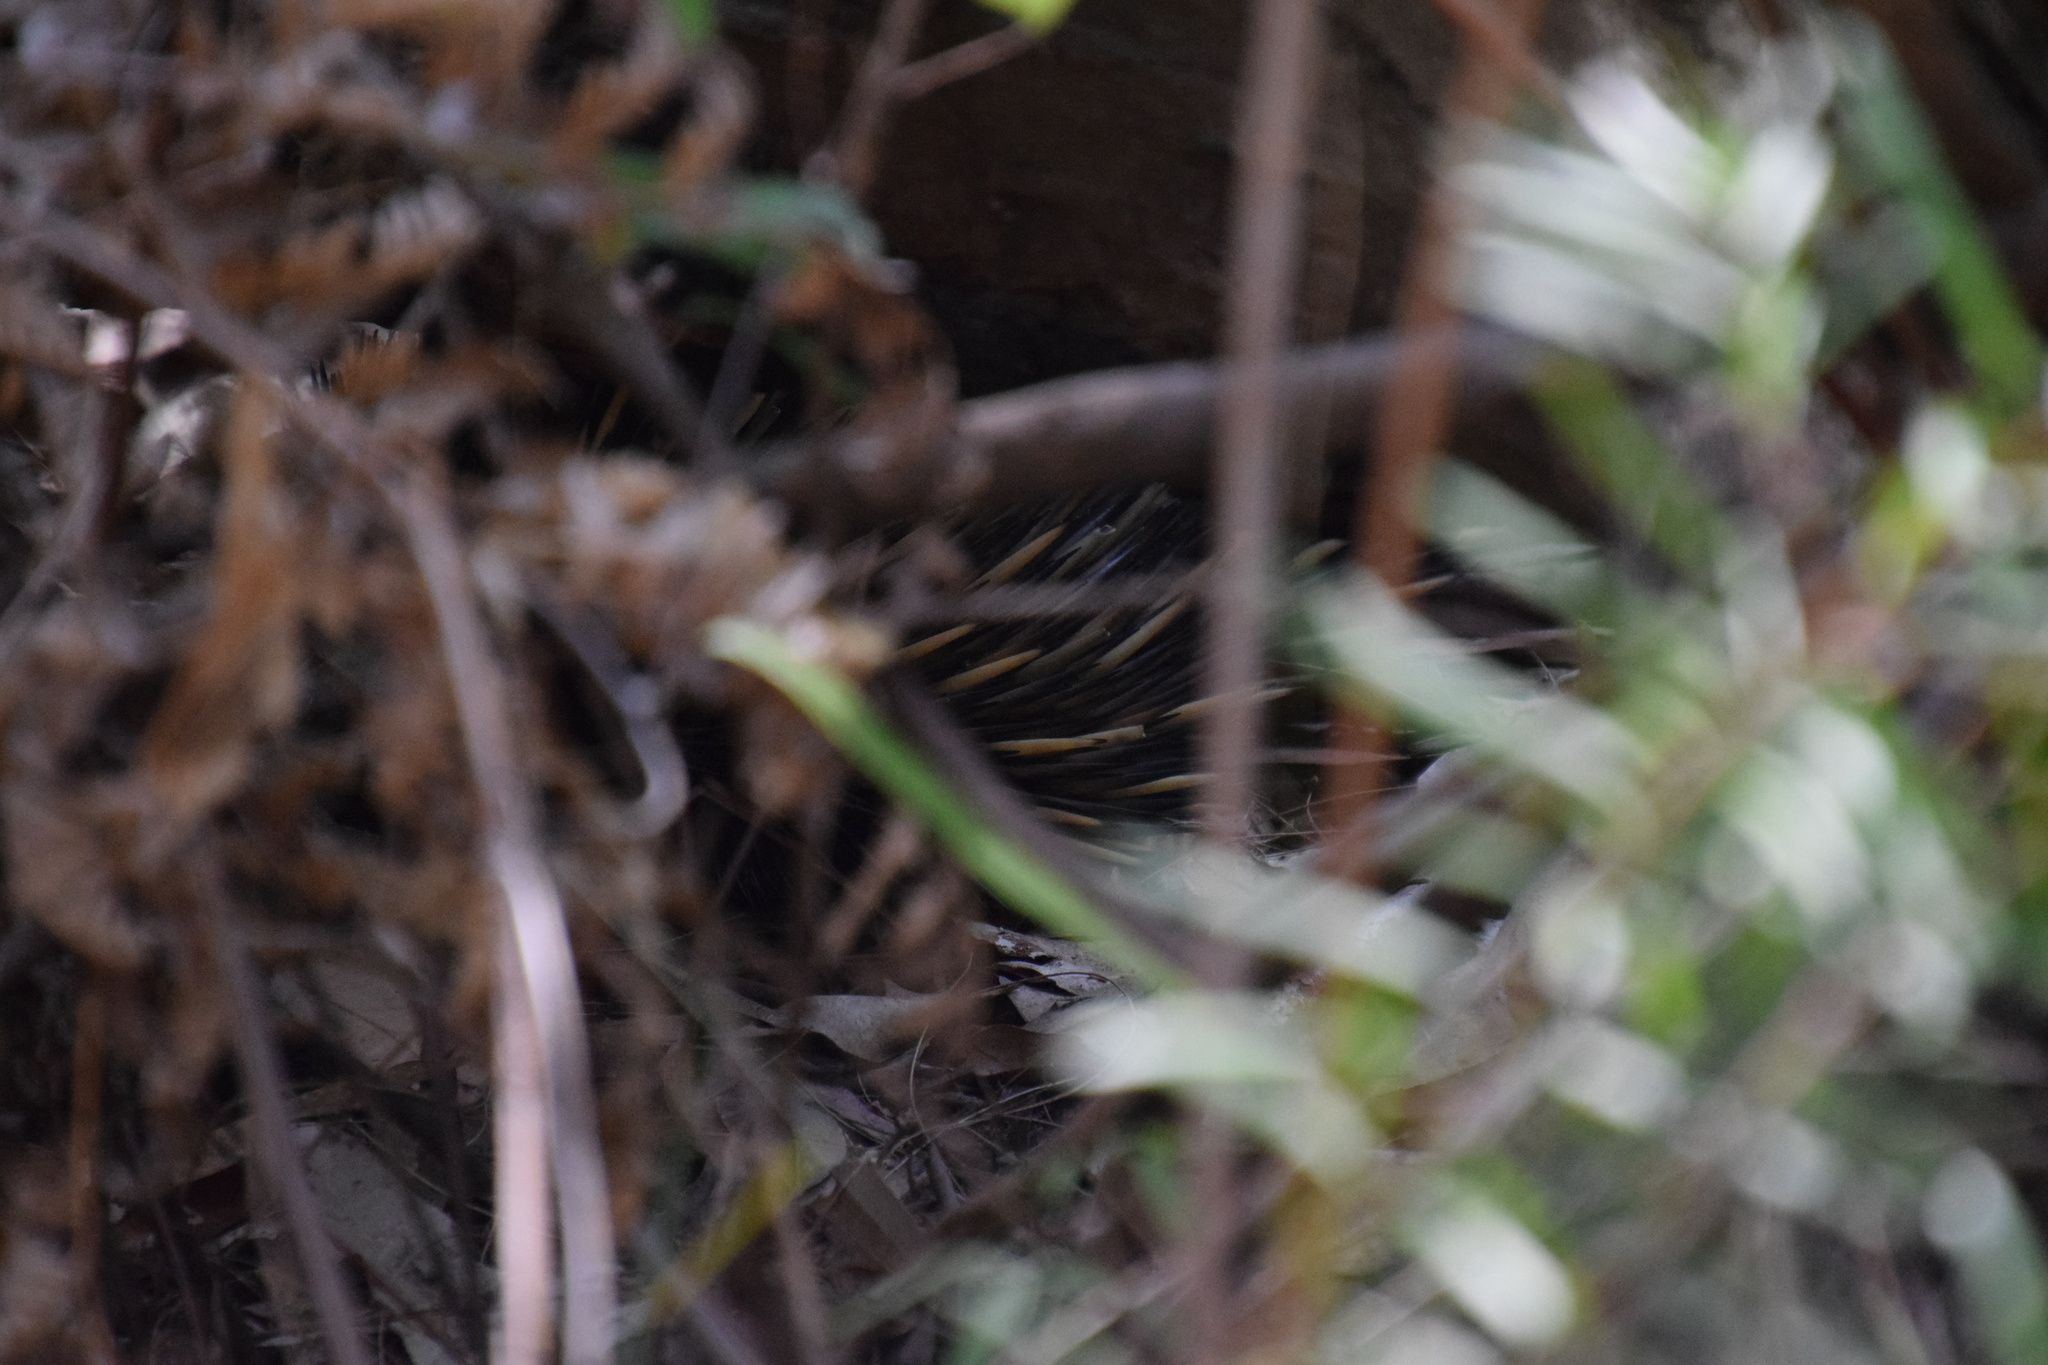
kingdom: Animalia
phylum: Chordata
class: Mammalia
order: Monotremata
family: Tachyglossidae
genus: Tachyglossus
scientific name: Tachyglossus aculeatus
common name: Short-beaked echidna
